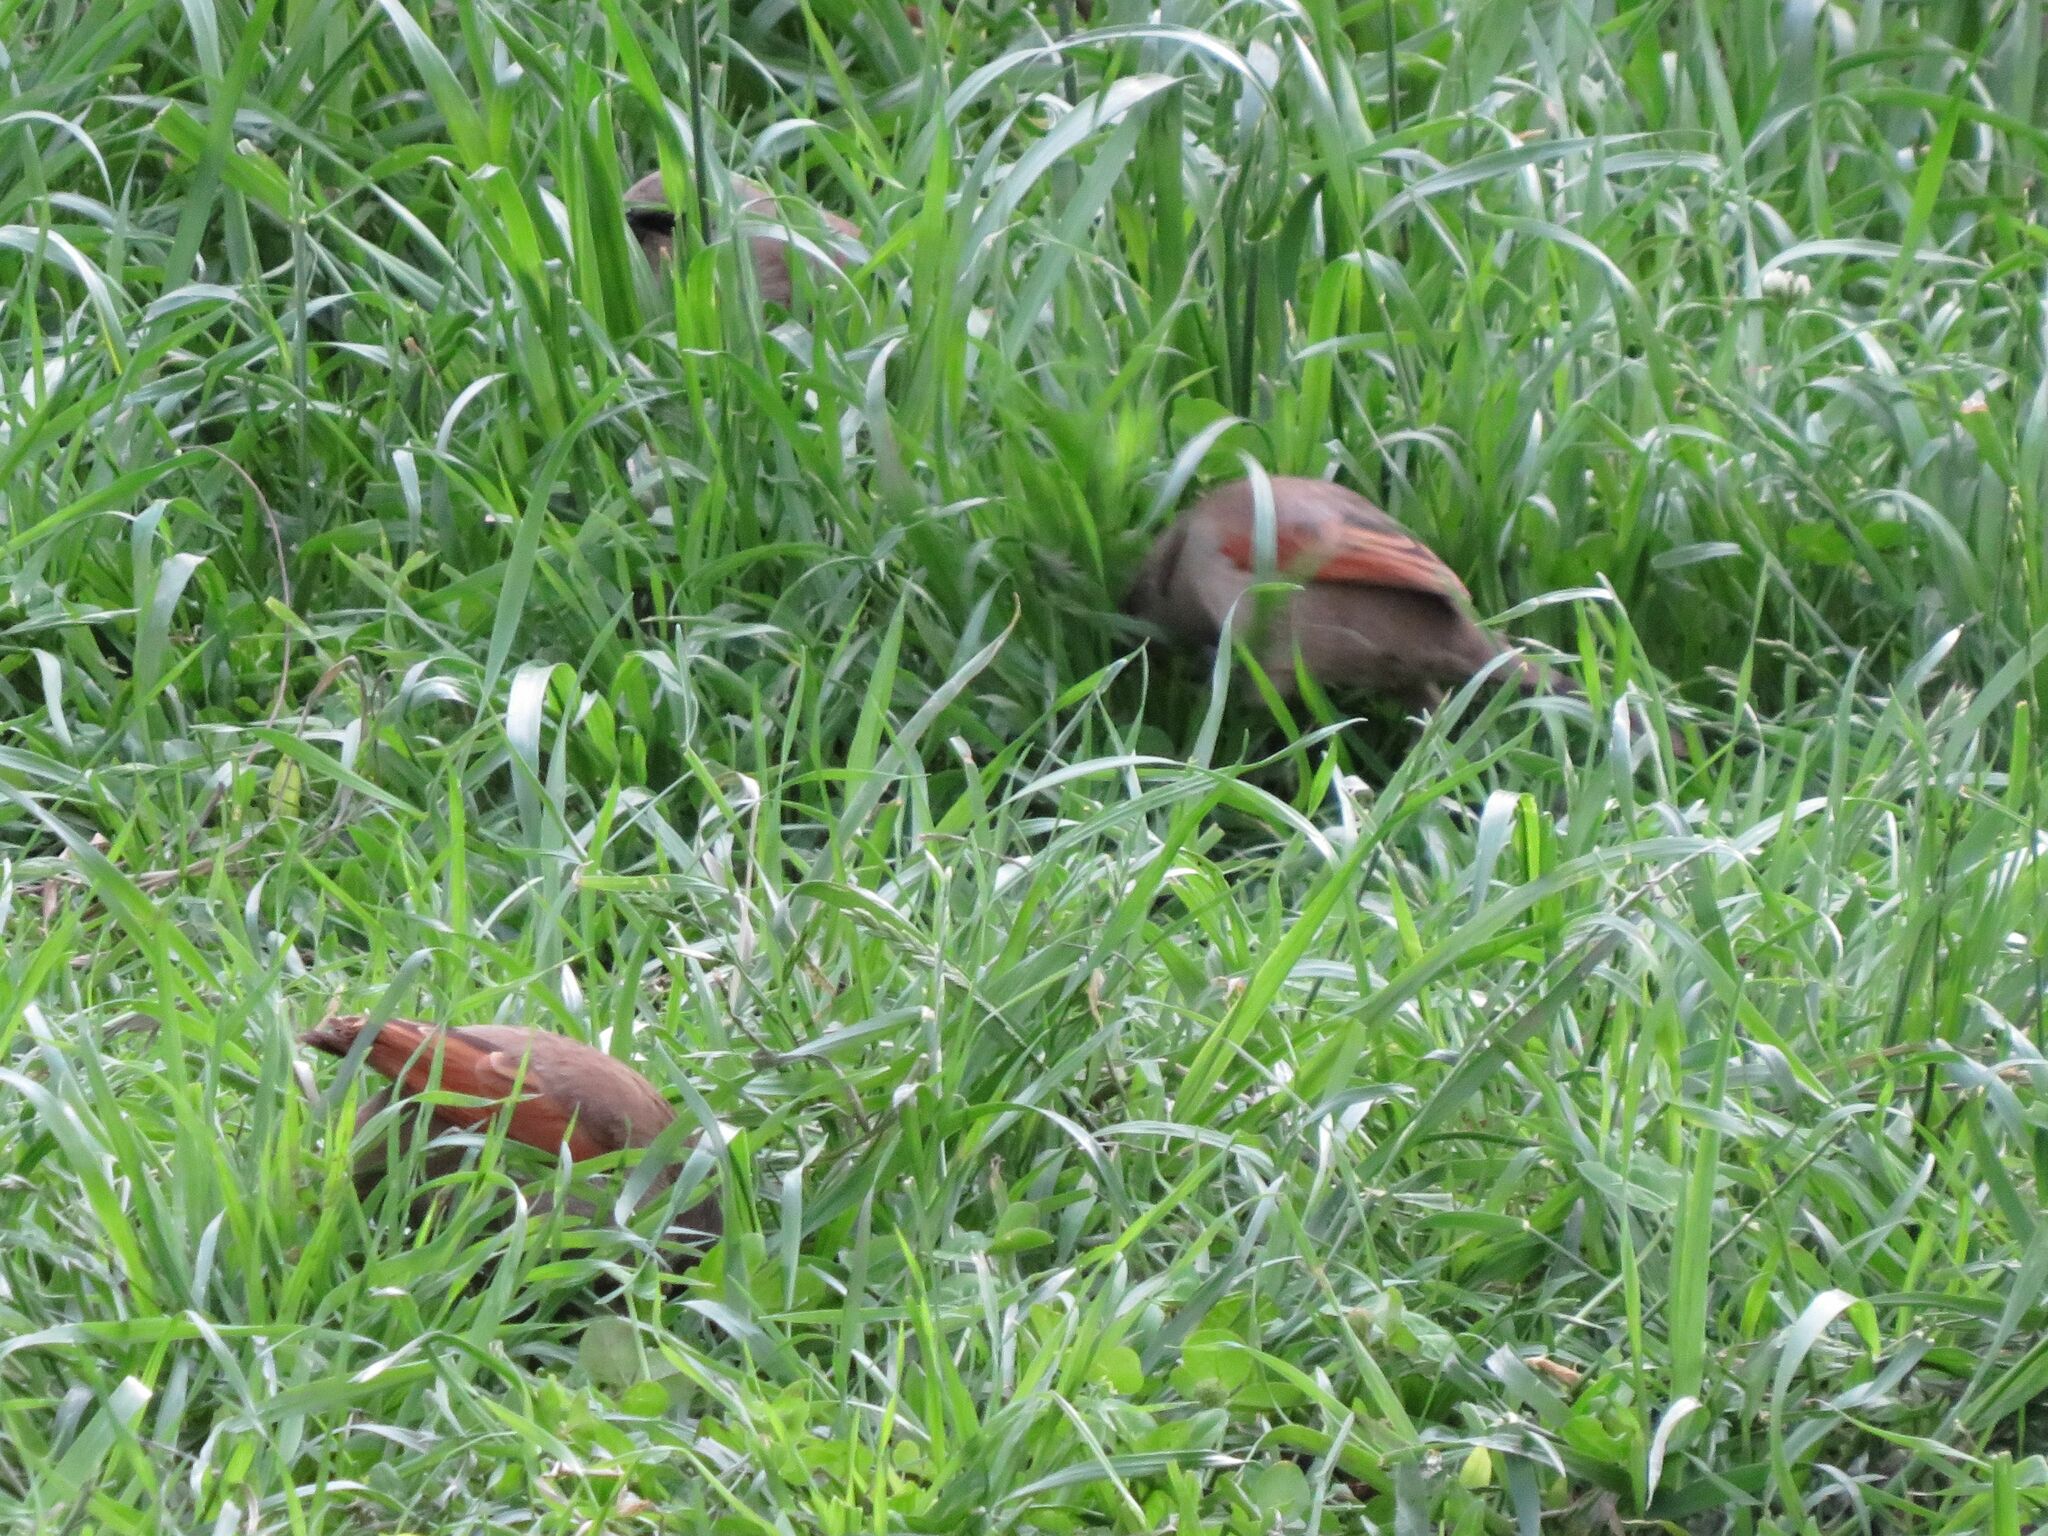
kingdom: Animalia
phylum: Chordata
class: Aves
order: Passeriformes
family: Icteridae
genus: Agelaioides
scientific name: Agelaioides badius
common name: Baywing
